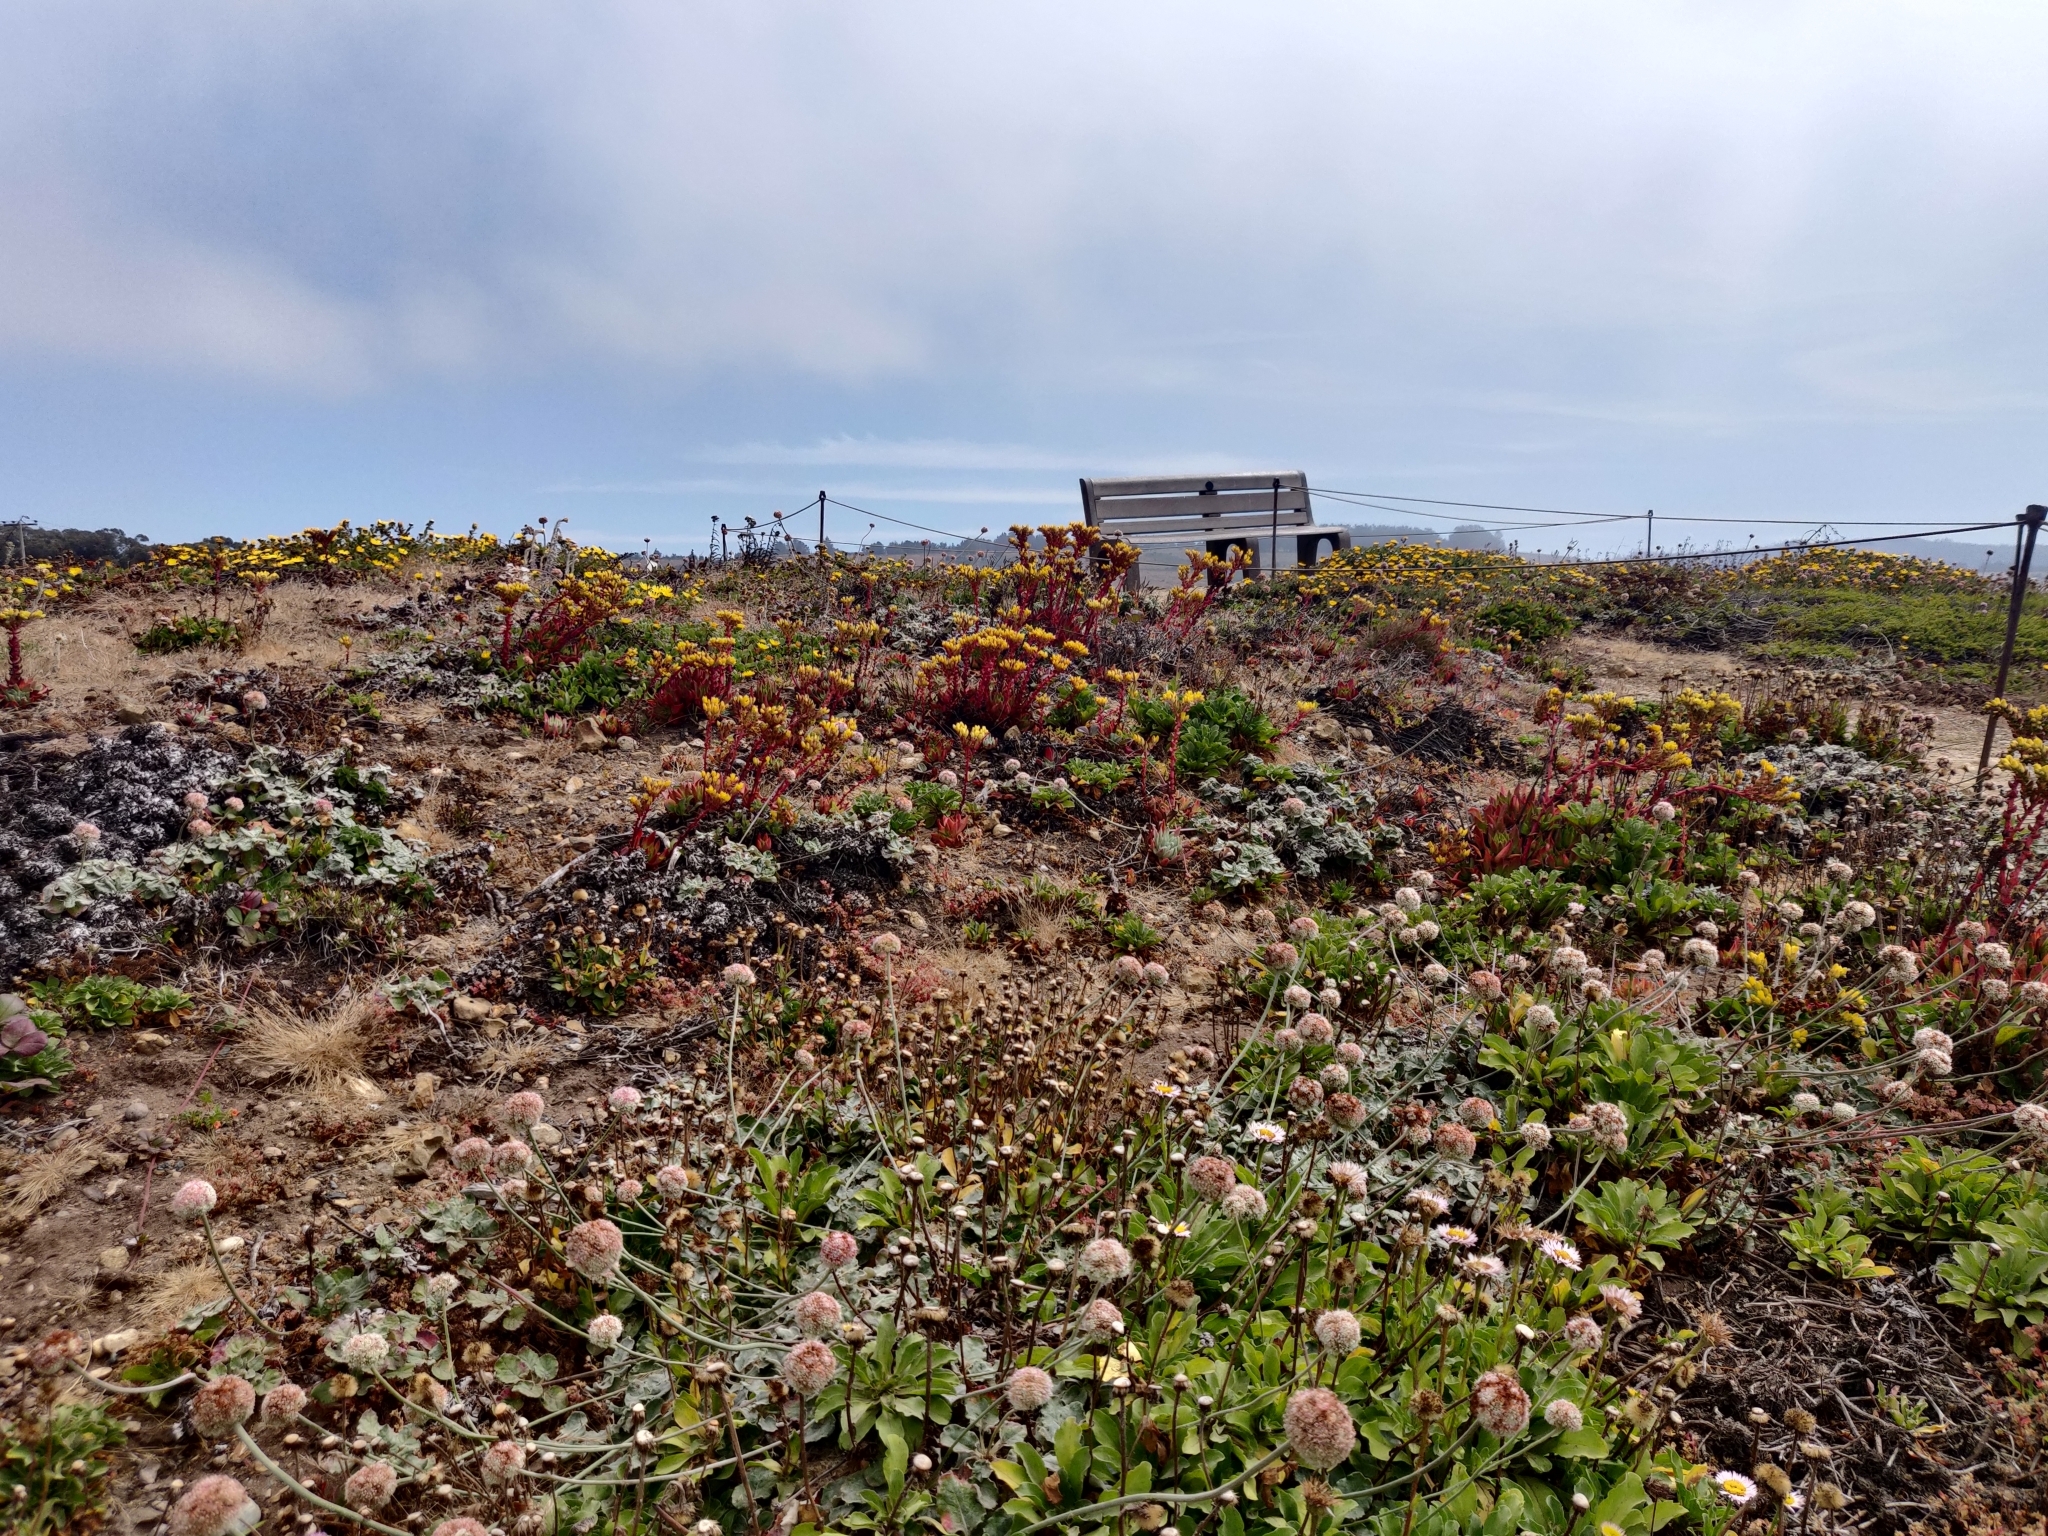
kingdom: Plantae
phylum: Tracheophyta
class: Magnoliopsida
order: Saxifragales
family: Crassulaceae
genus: Dudleya
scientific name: Dudleya caespitosa
